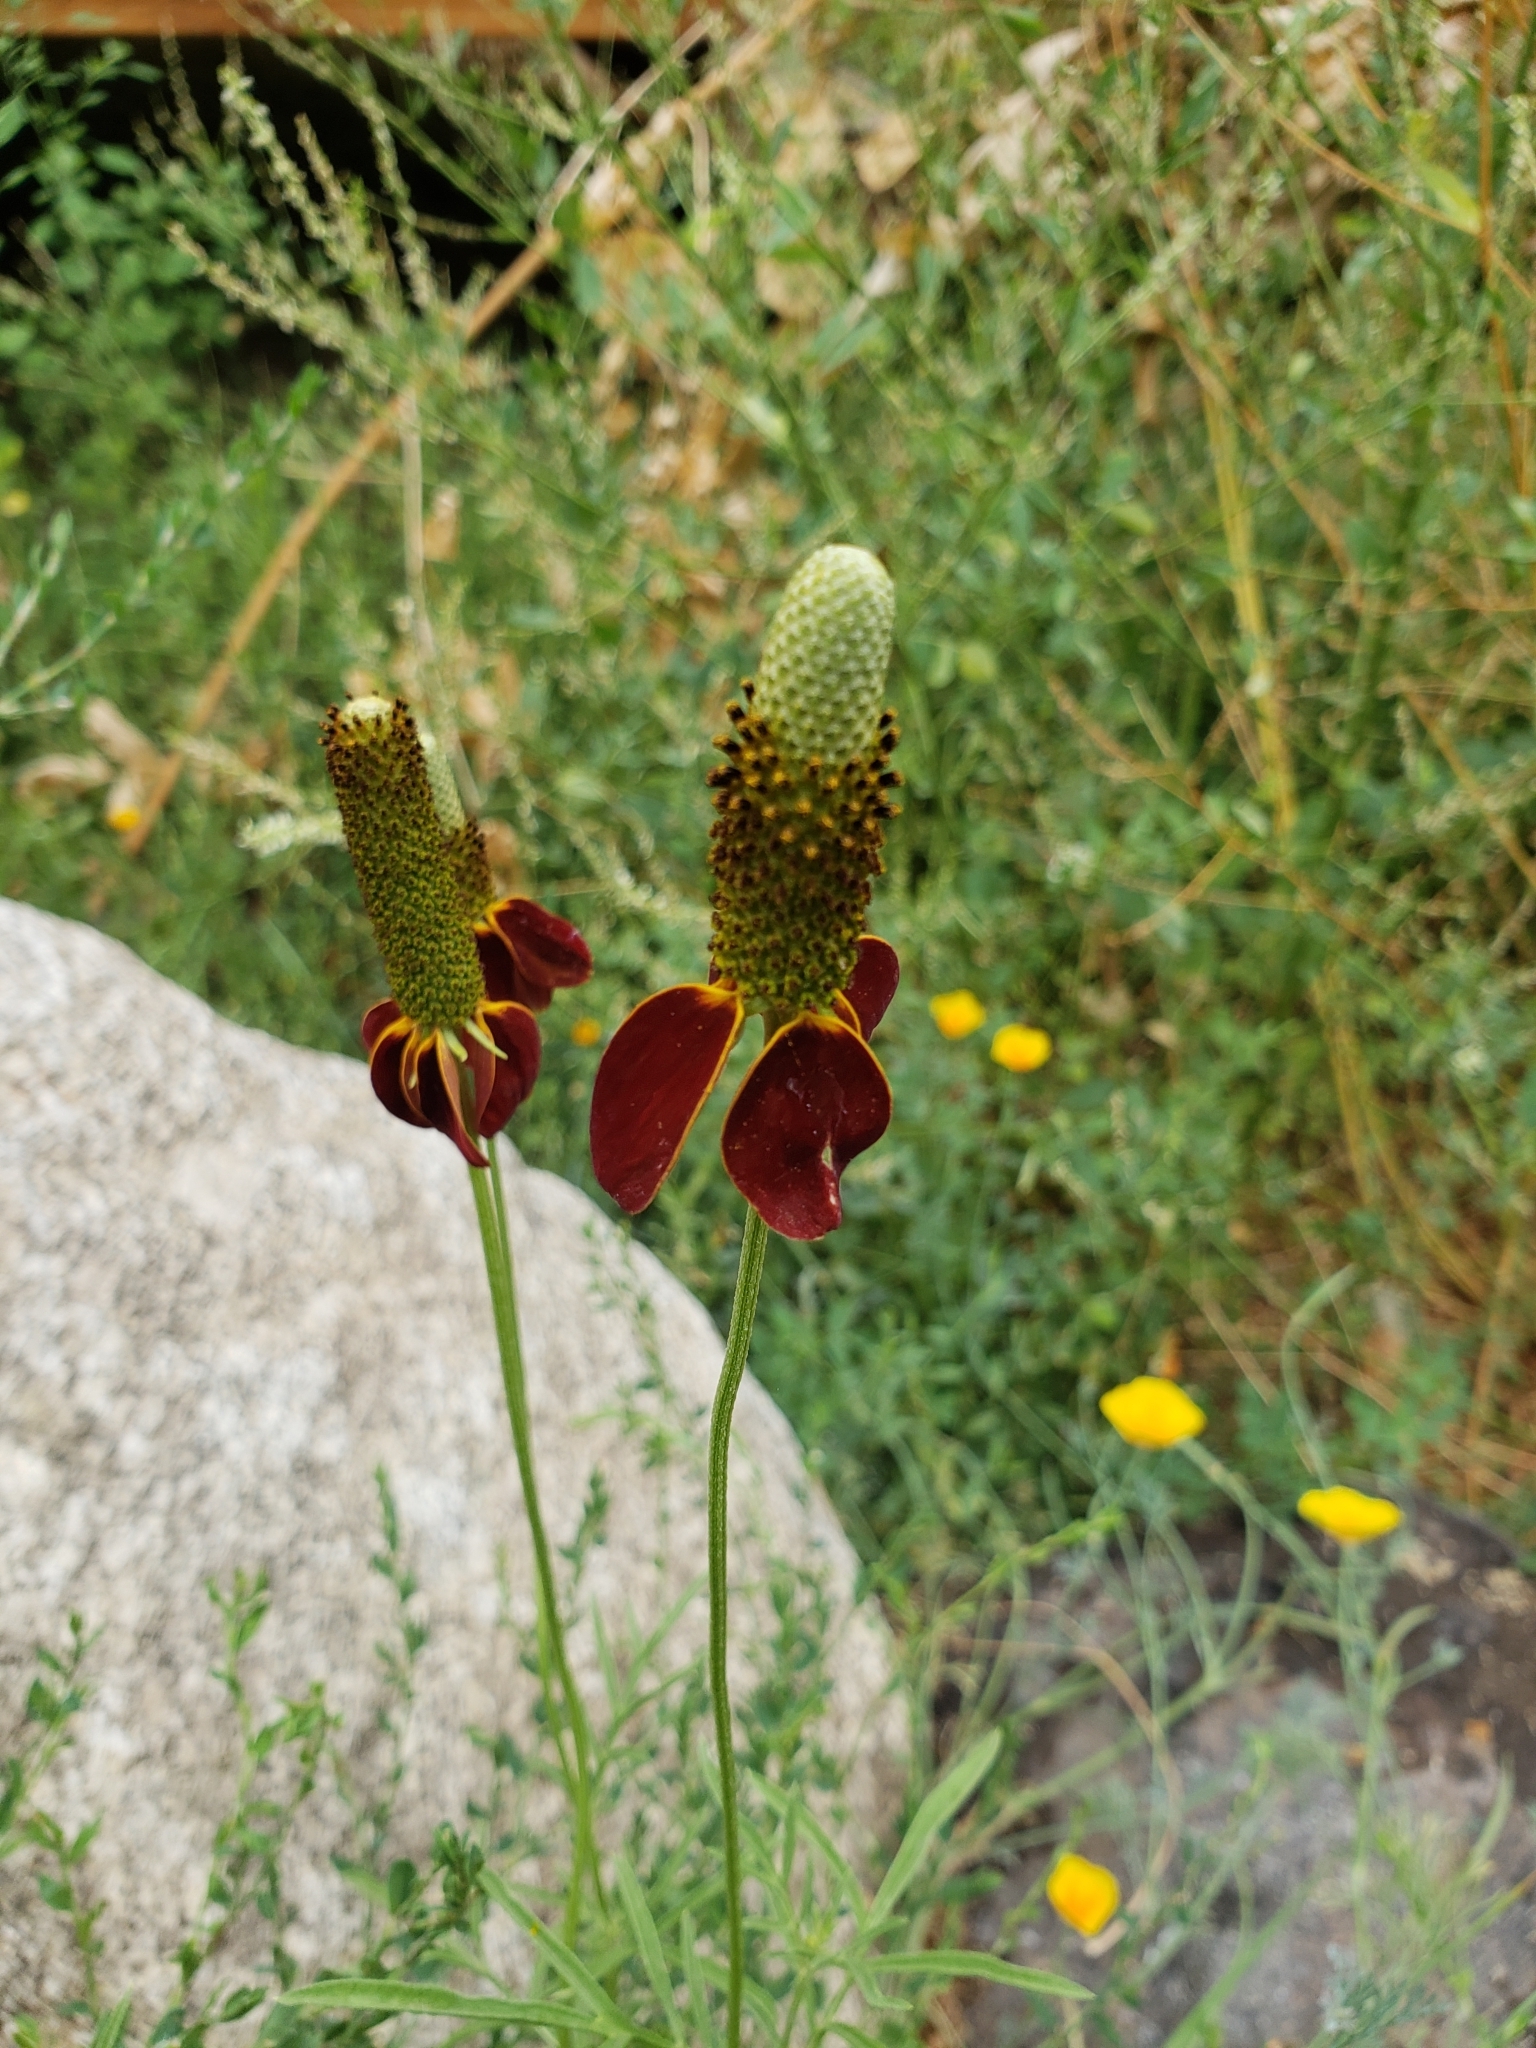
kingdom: Plantae
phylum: Tracheophyta
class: Magnoliopsida
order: Asterales
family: Asteraceae
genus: Ratibida
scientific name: Ratibida columnifera
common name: Prairie coneflower
